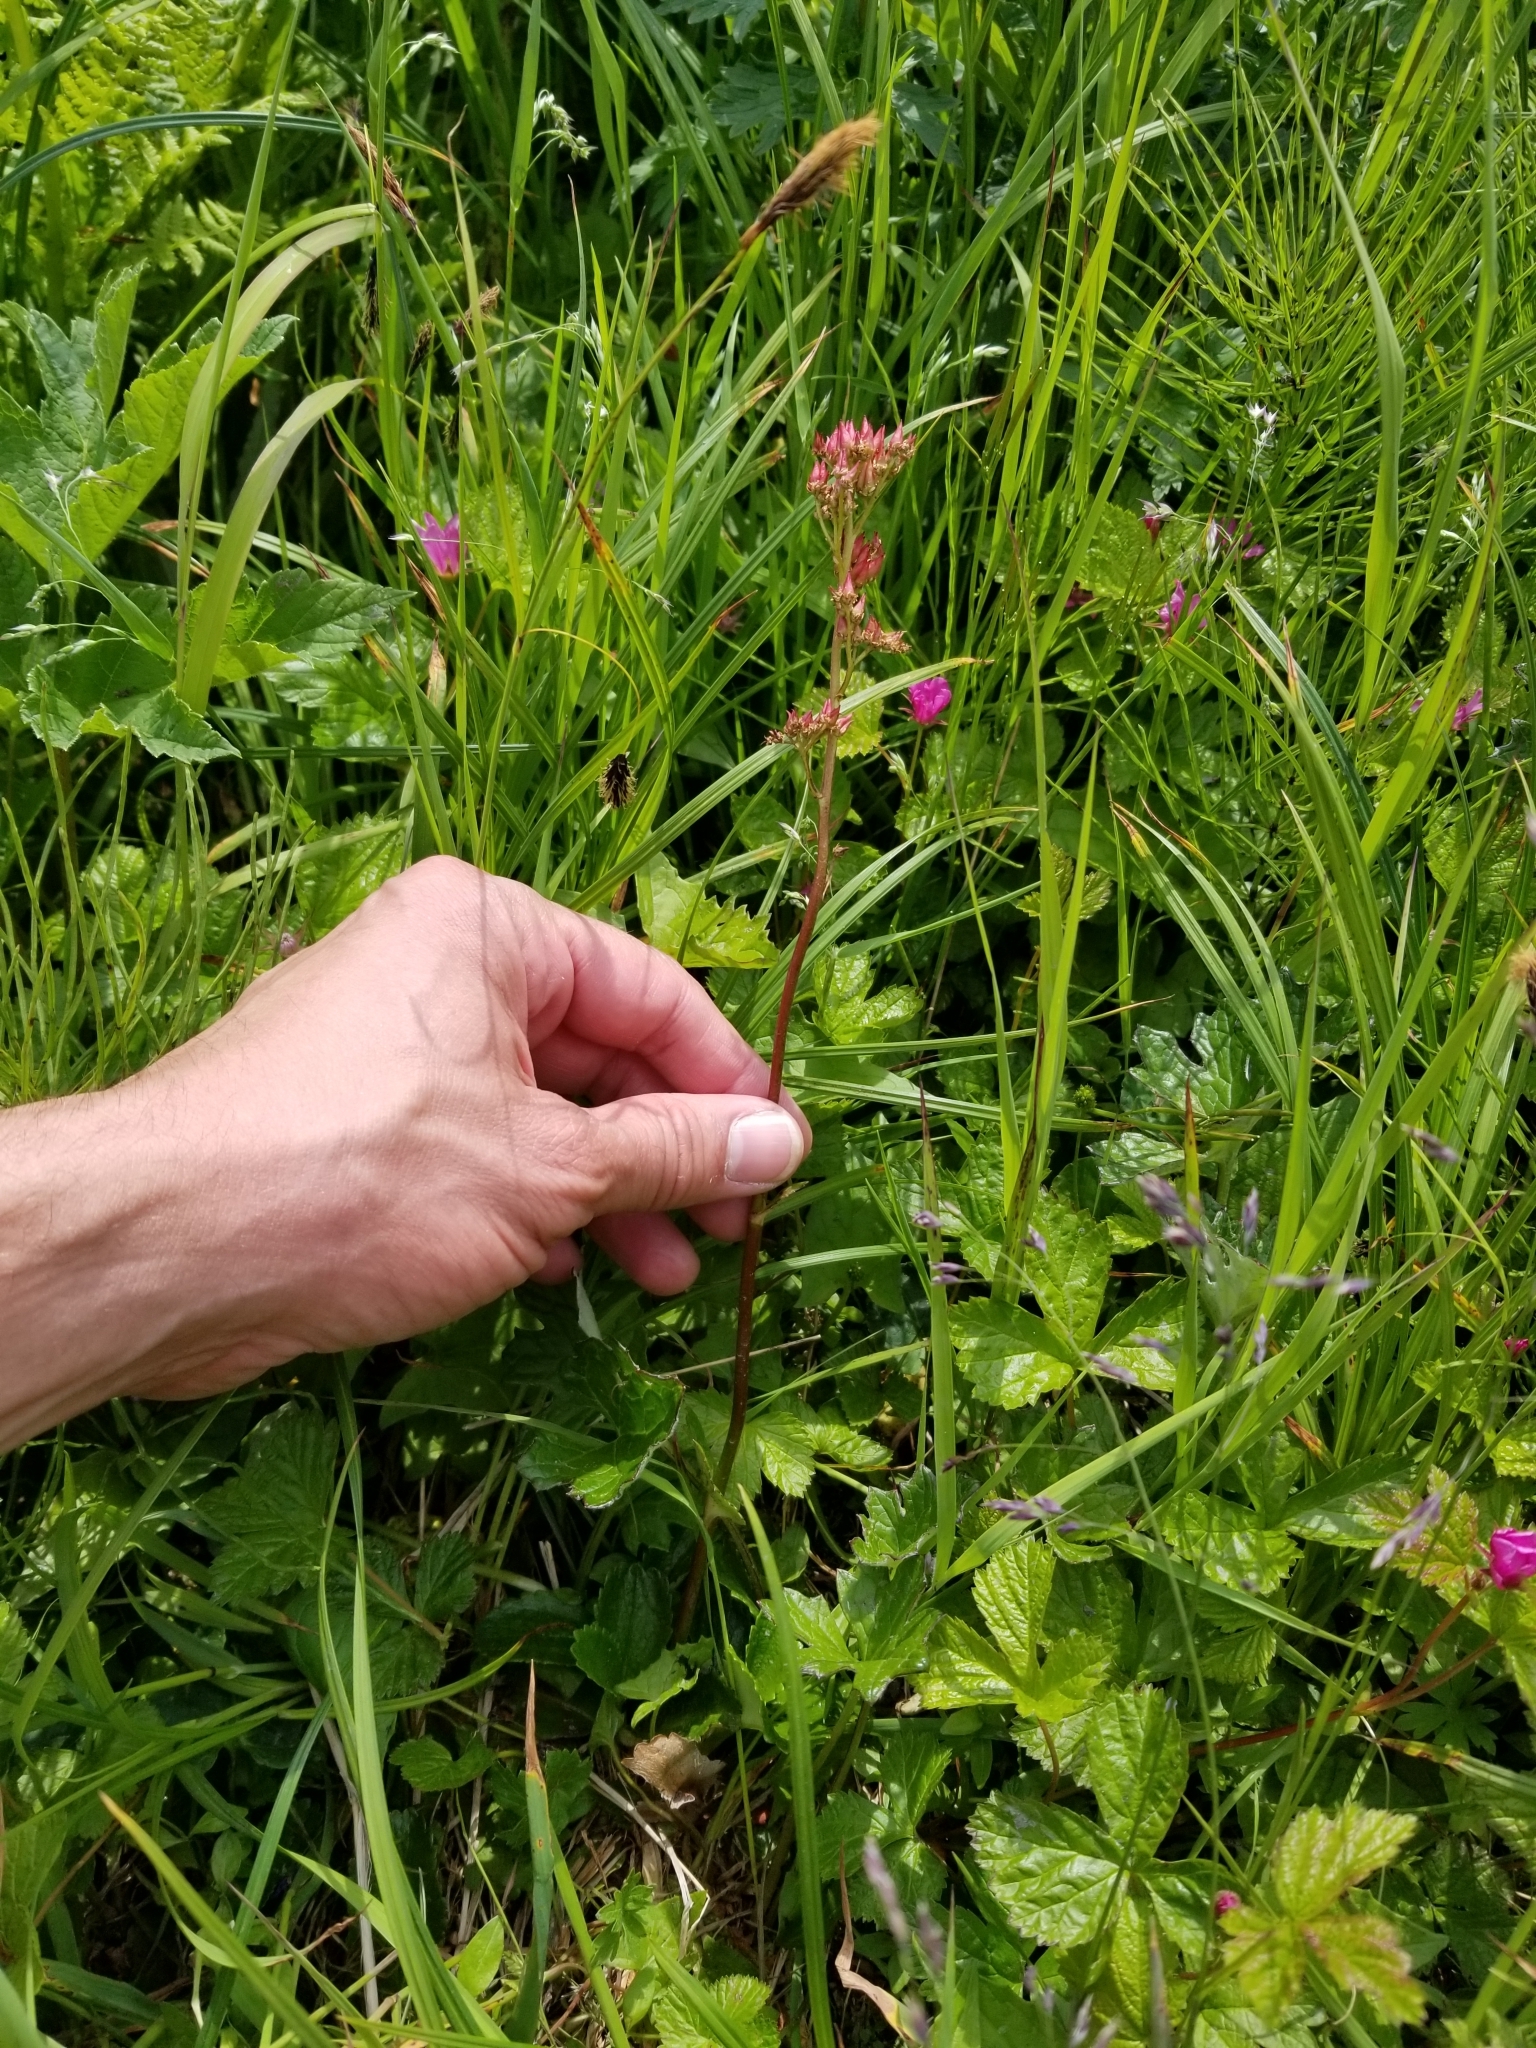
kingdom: Plantae
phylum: Tracheophyta
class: Magnoliopsida
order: Saxifragales
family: Saxifragaceae
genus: Leptarrhena
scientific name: Leptarrhena pyrolifolia
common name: Leatherleaf-saxifrage
